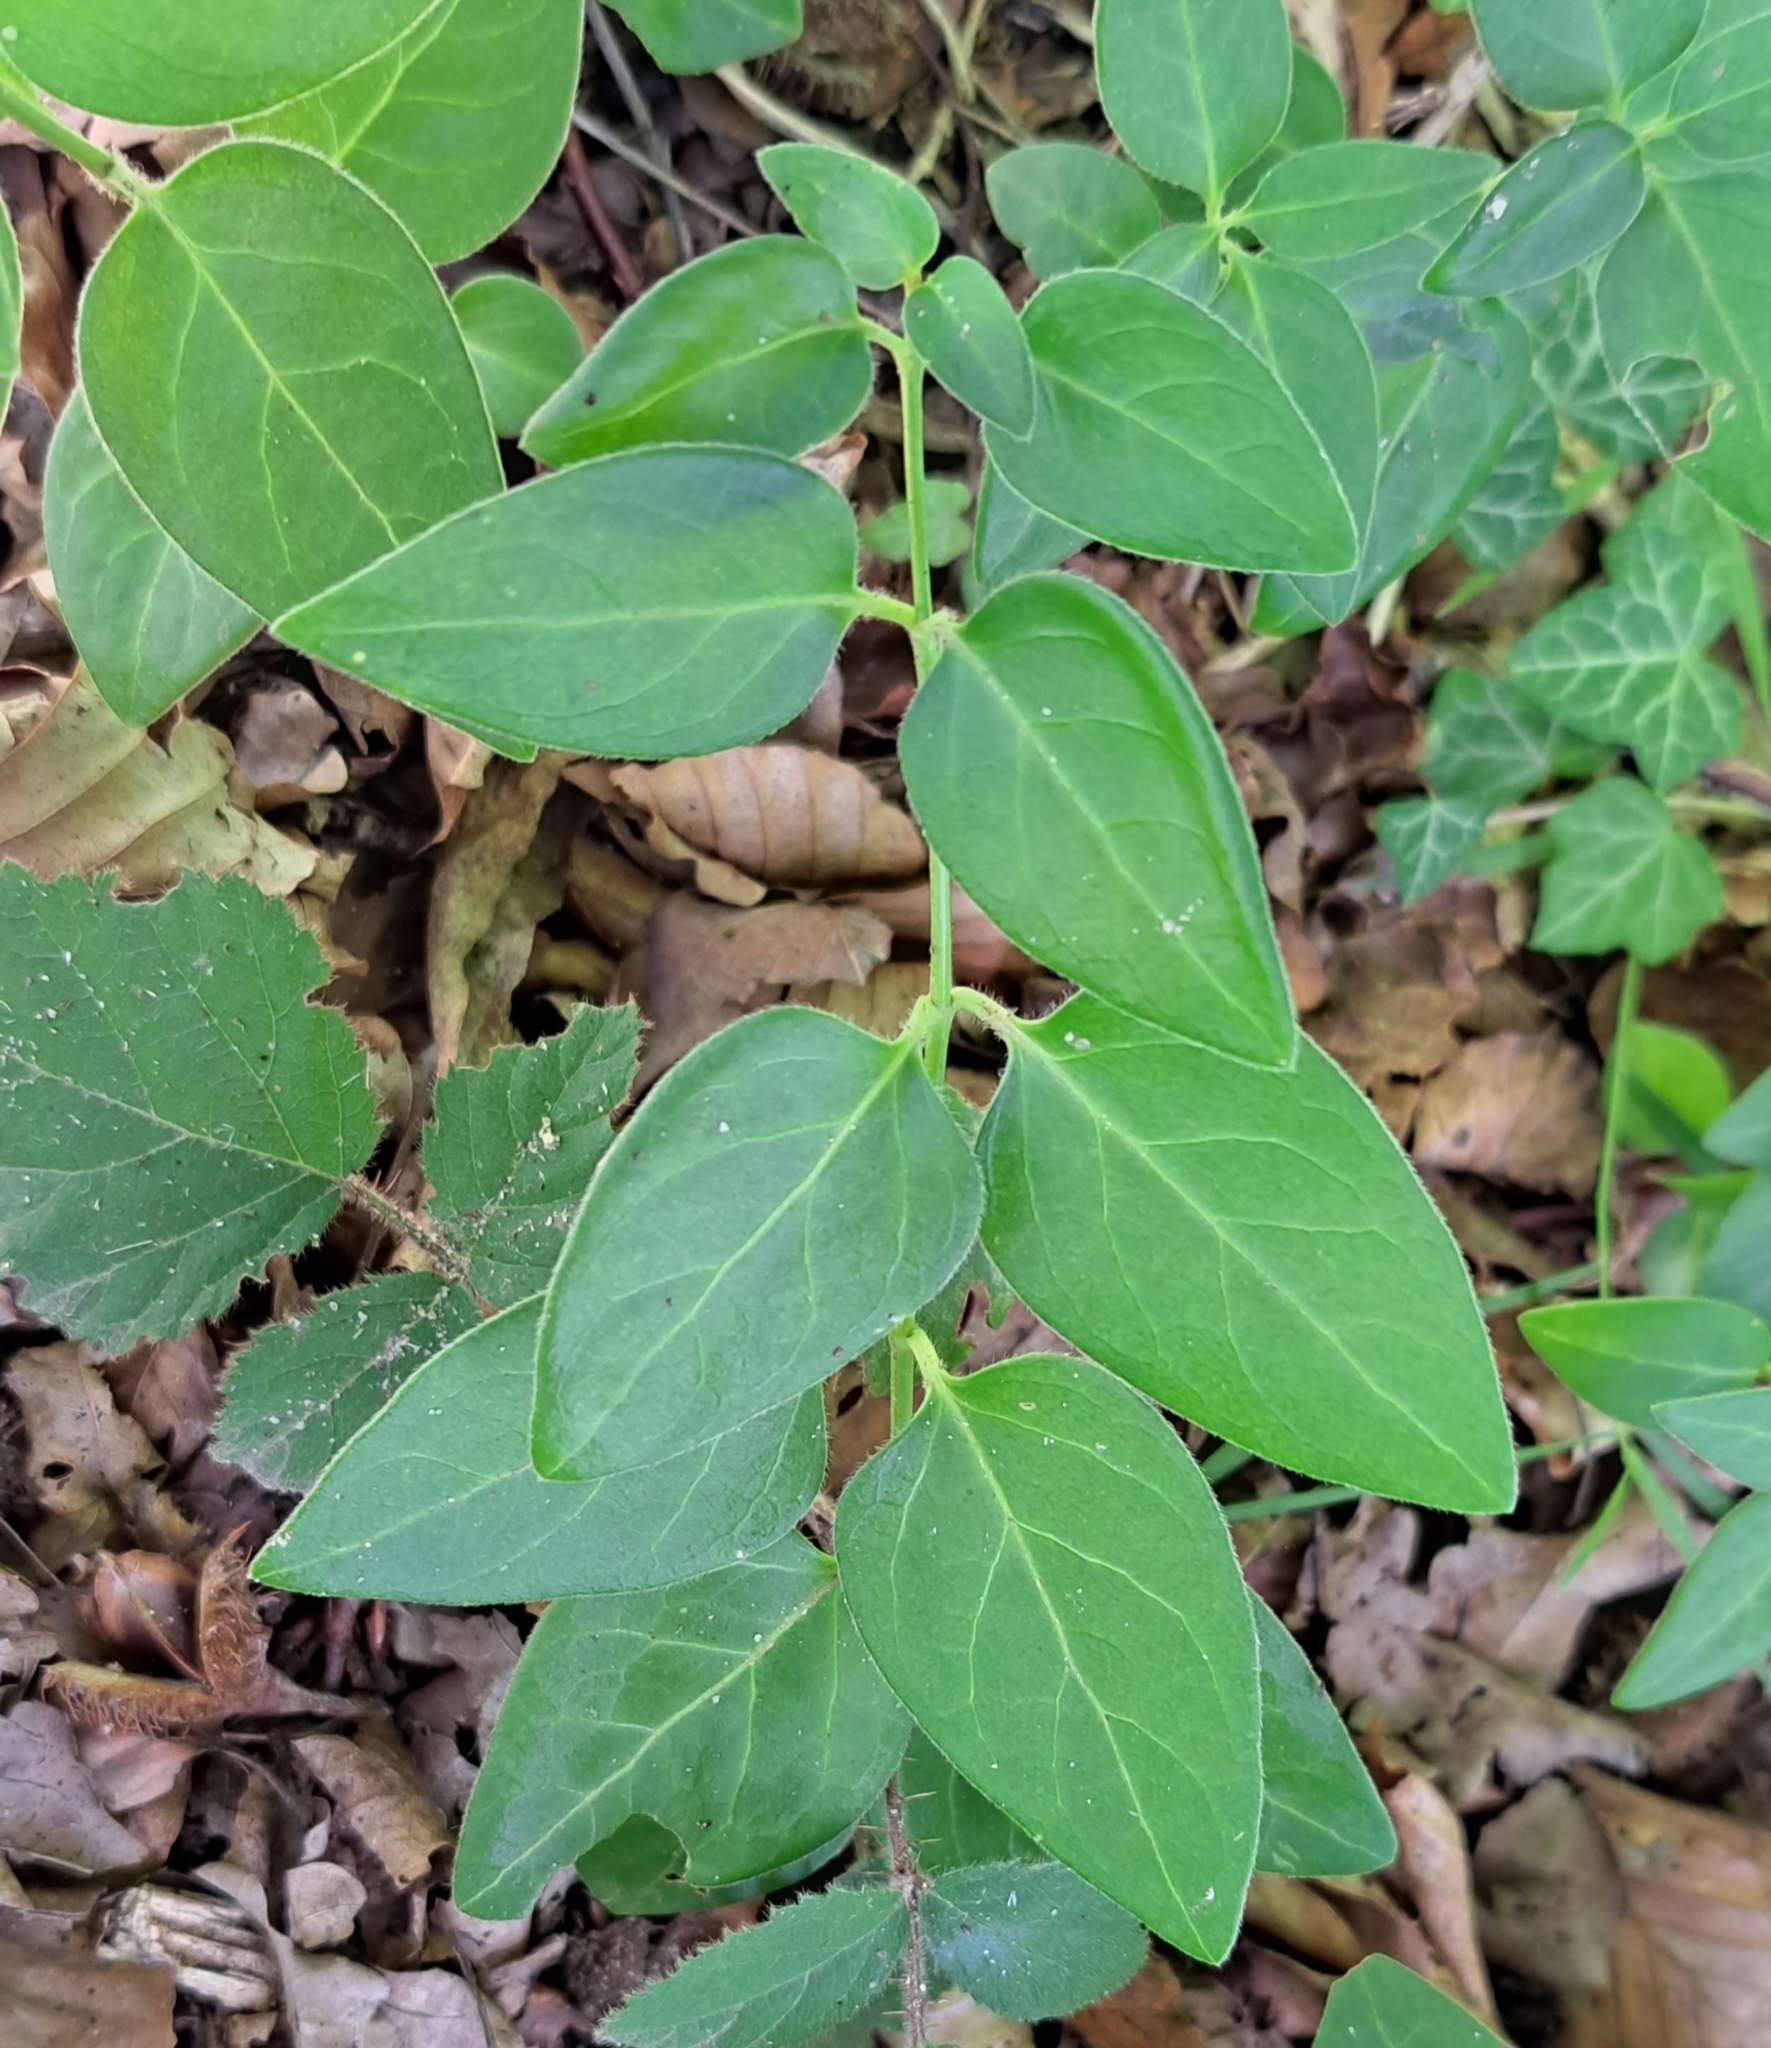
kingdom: Plantae
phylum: Tracheophyta
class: Magnoliopsida
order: Gentianales
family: Apocynaceae
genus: Vinca
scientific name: Vinca major
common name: Greater periwinkle
